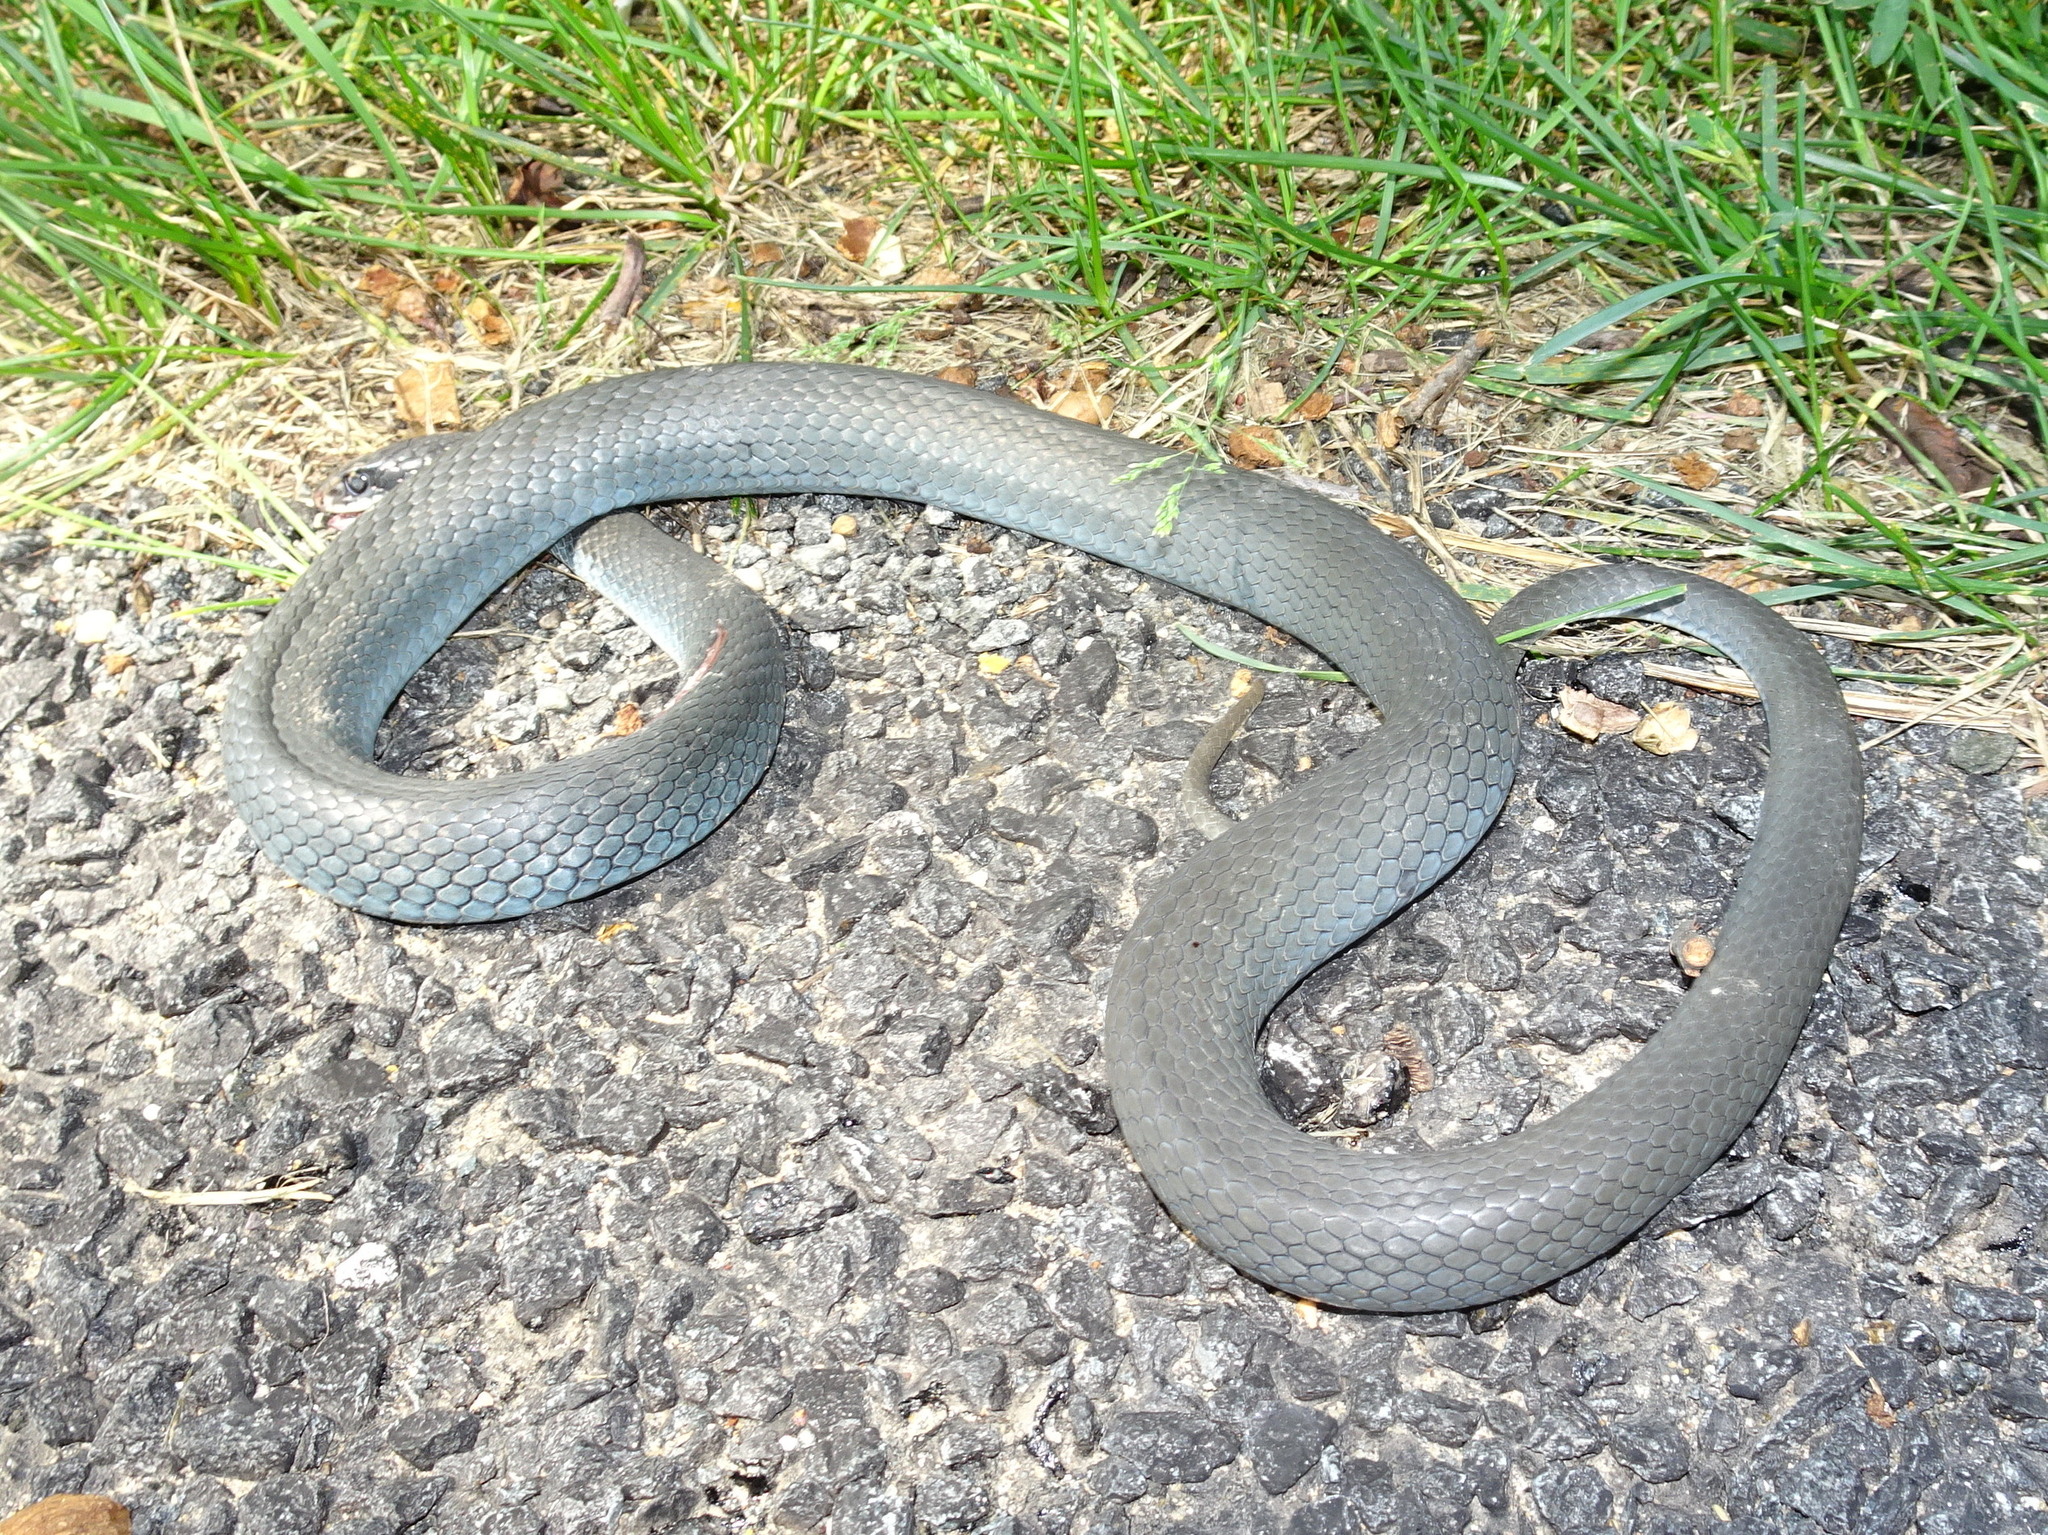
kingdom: Animalia
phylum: Chordata
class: Squamata
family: Colubridae
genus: Coluber
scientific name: Coluber constrictor
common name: Eastern racer
